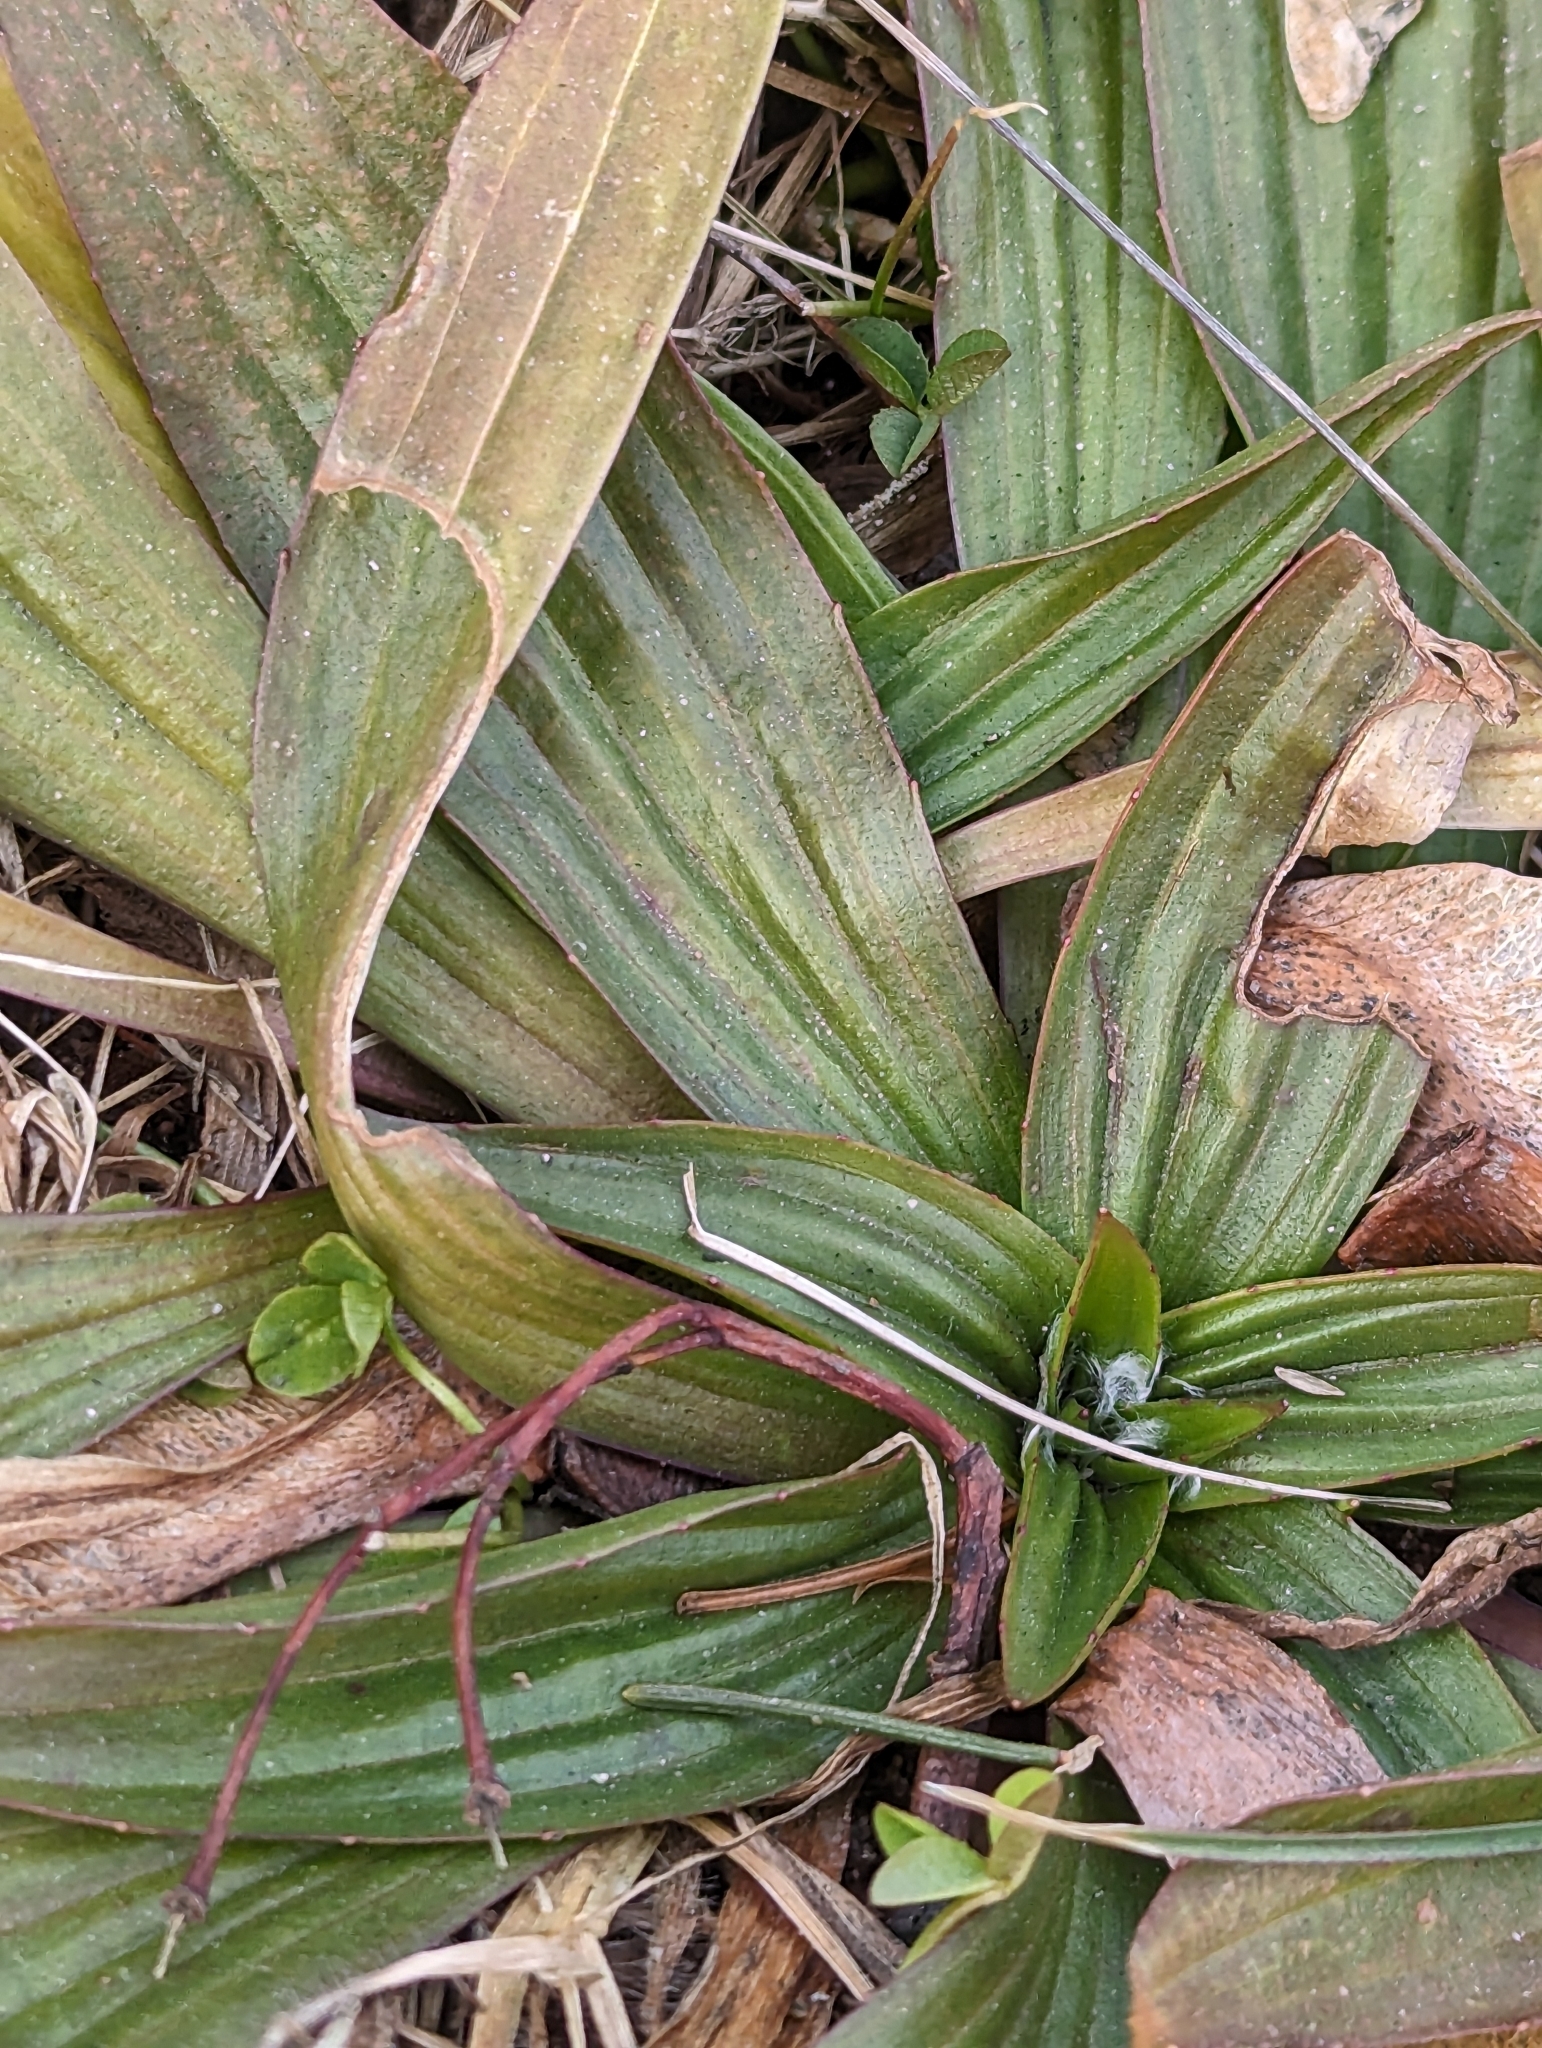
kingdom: Plantae
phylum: Tracheophyta
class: Magnoliopsida
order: Lamiales
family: Plantaginaceae
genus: Plantago
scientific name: Plantago lanceolata
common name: Ribwort plantain
